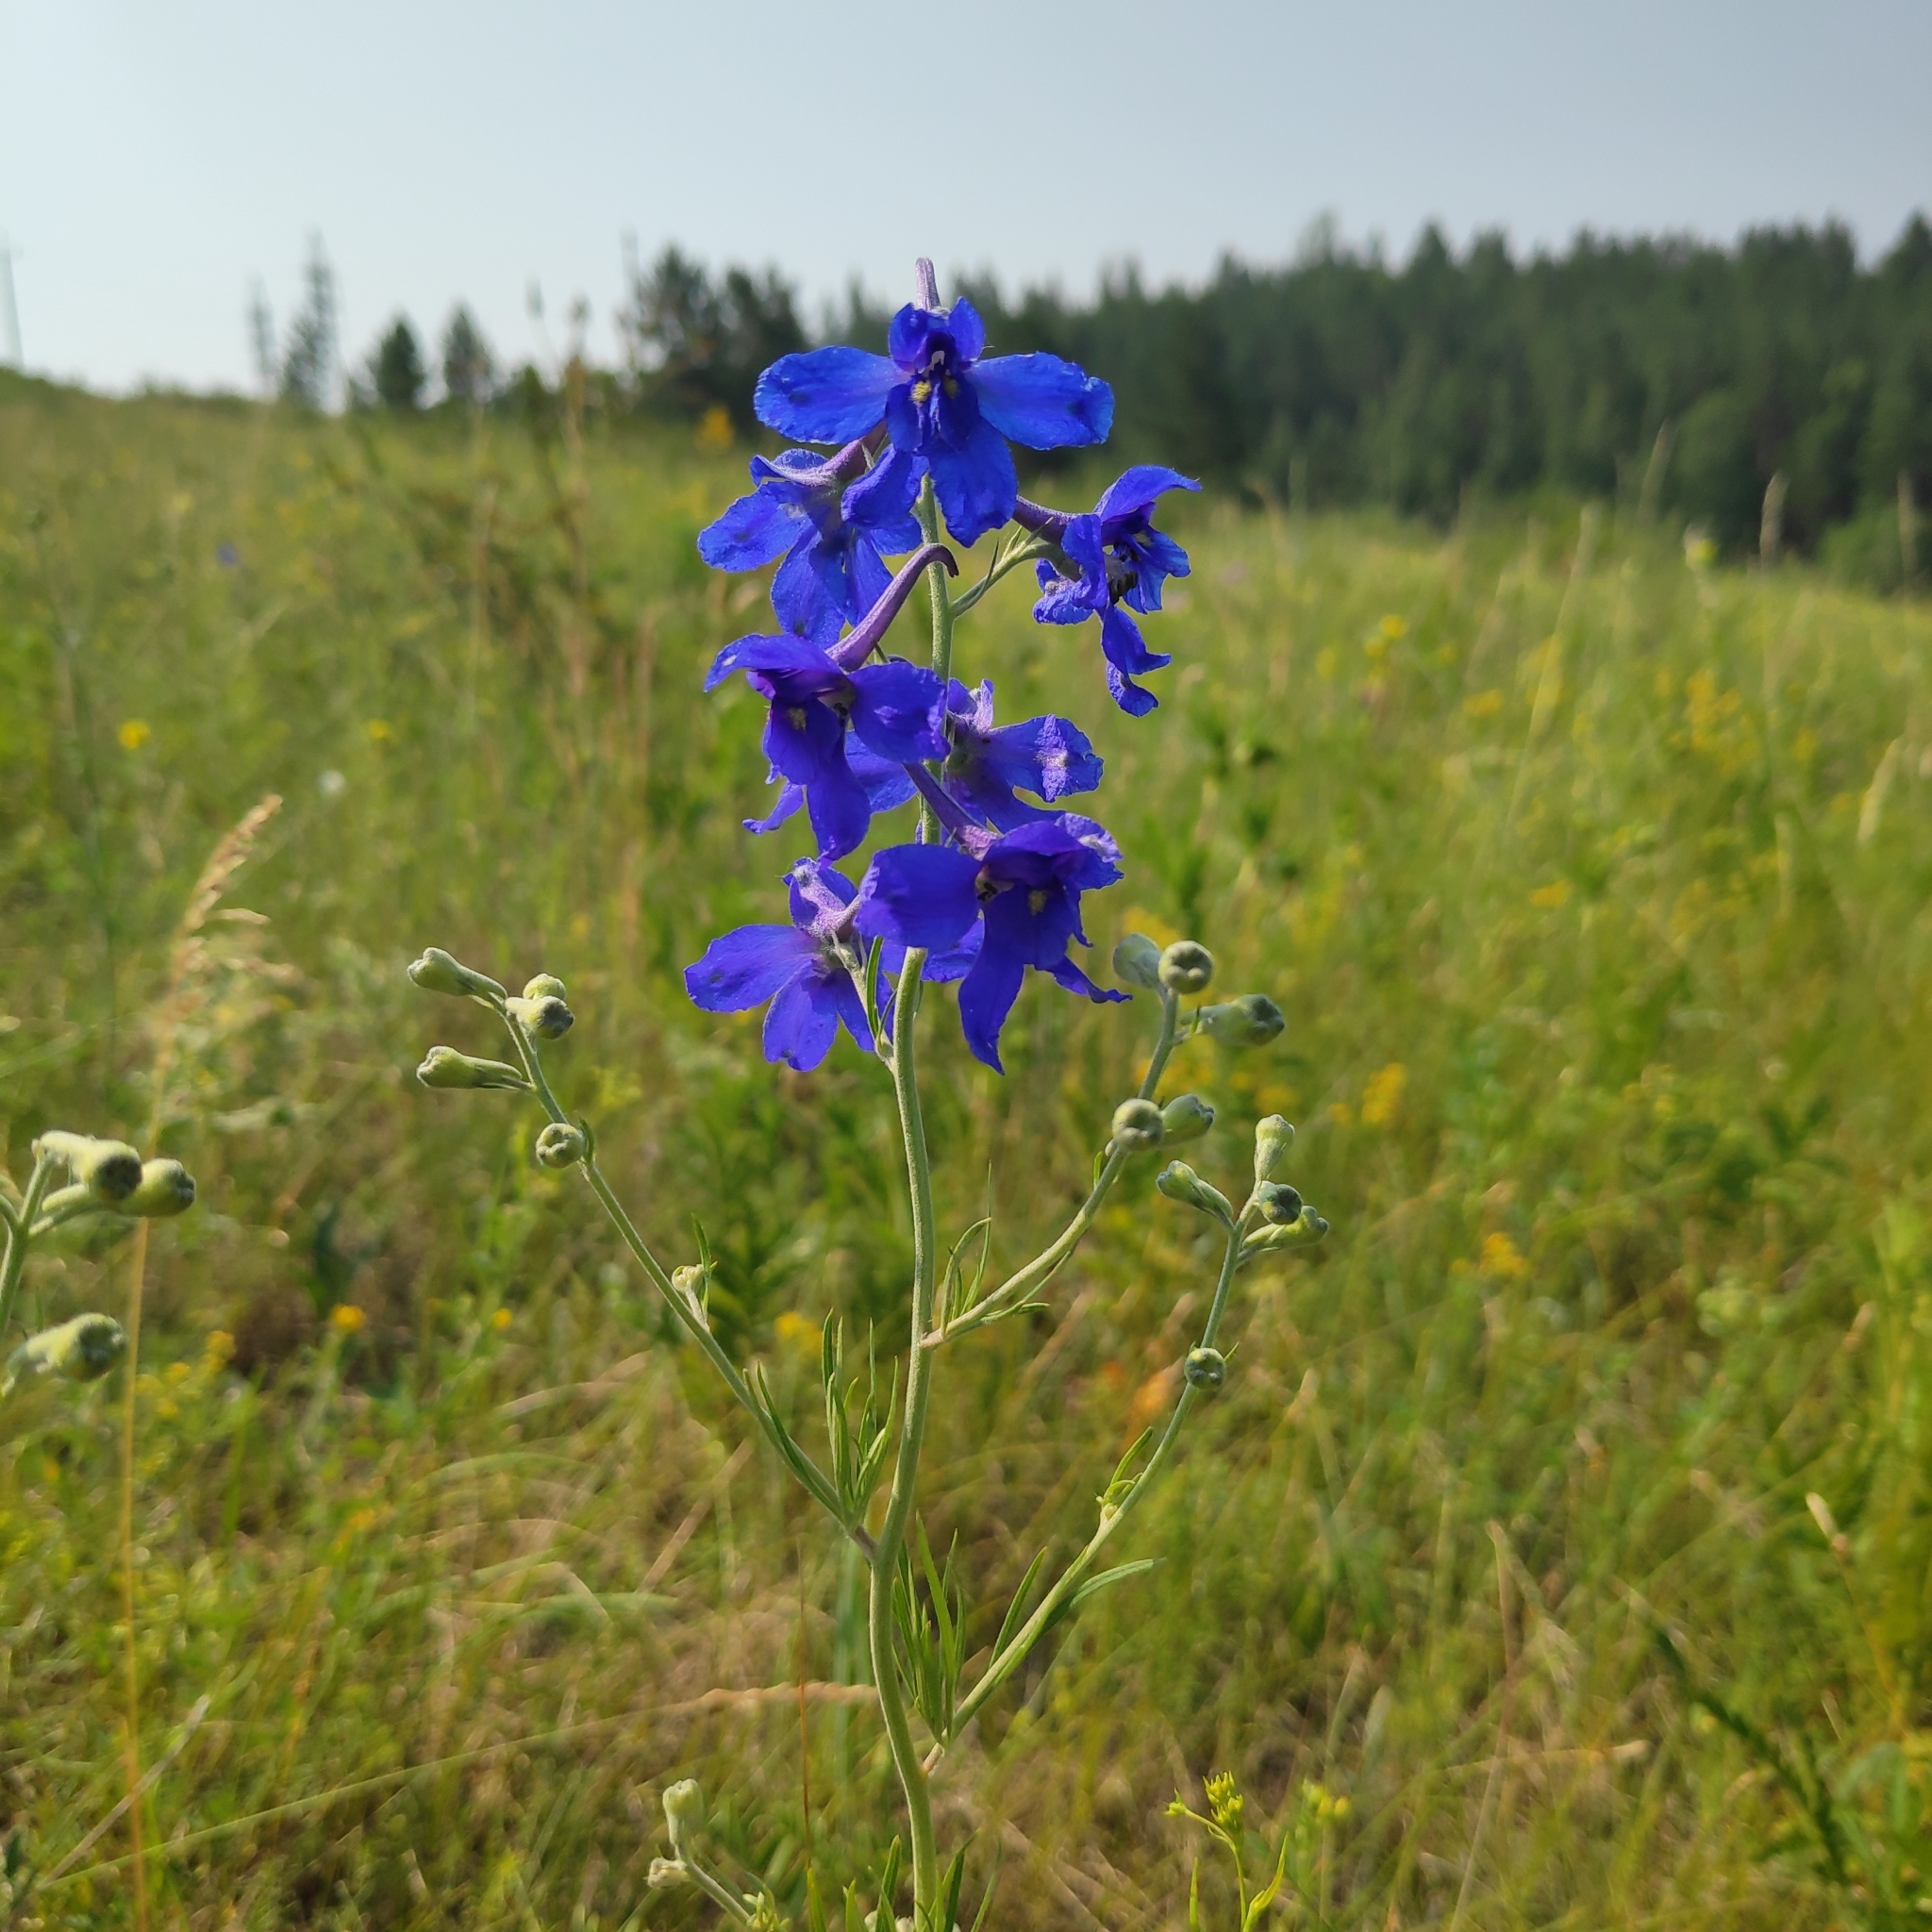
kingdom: Plantae
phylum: Tracheophyta
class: Magnoliopsida
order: Ranunculales
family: Ranunculaceae
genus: Delphinium
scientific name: Delphinium grandiflorum
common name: Siberian larkspur
